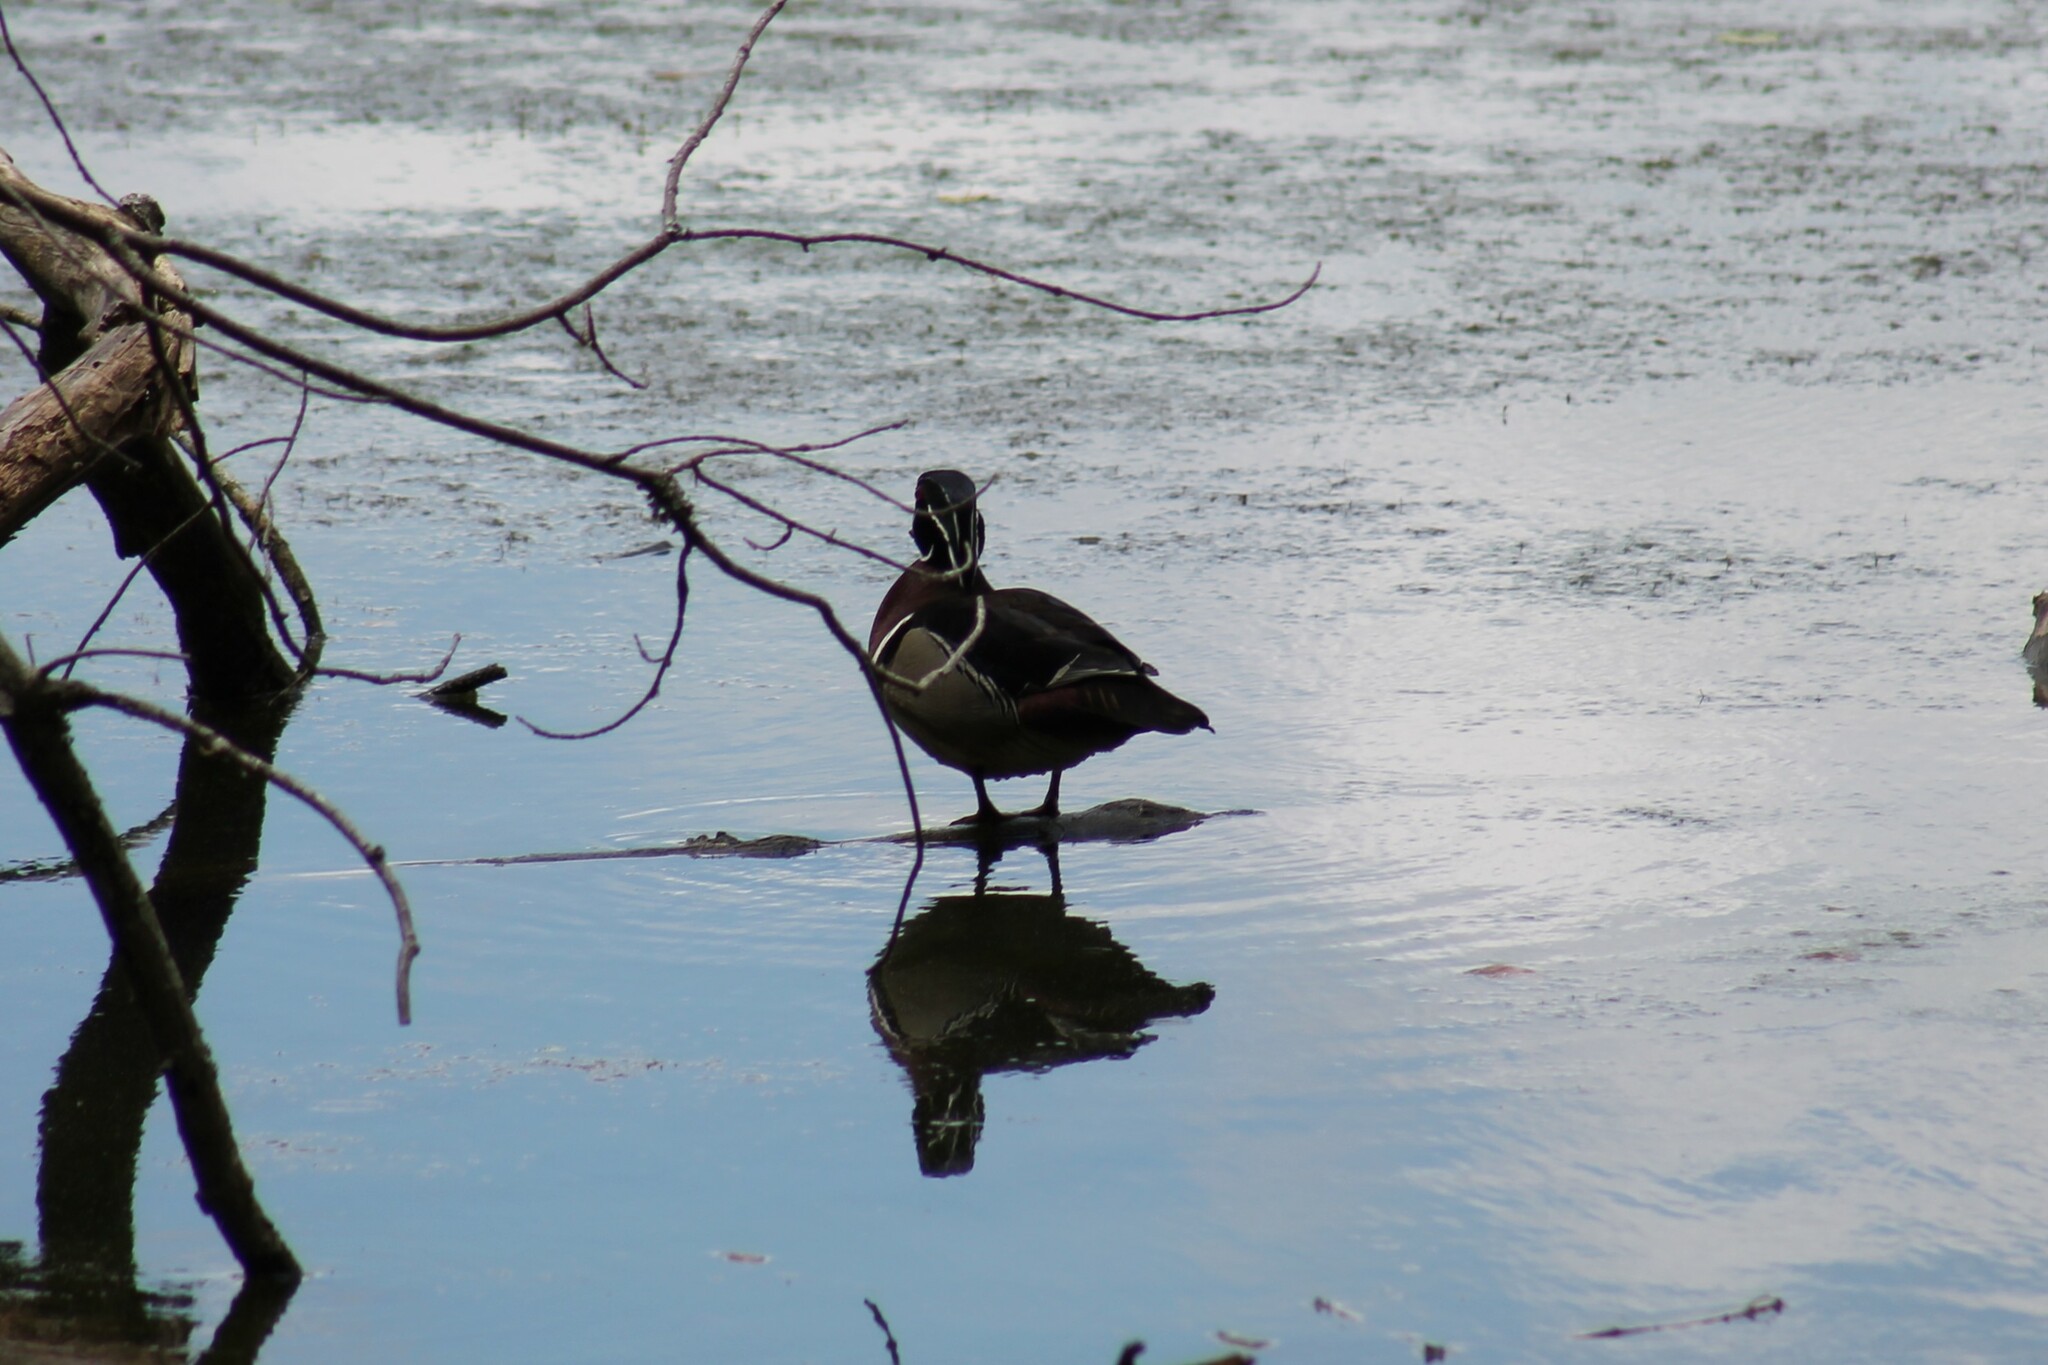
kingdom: Animalia
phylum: Chordata
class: Aves
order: Anseriformes
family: Anatidae
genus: Aix
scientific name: Aix sponsa
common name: Wood duck
